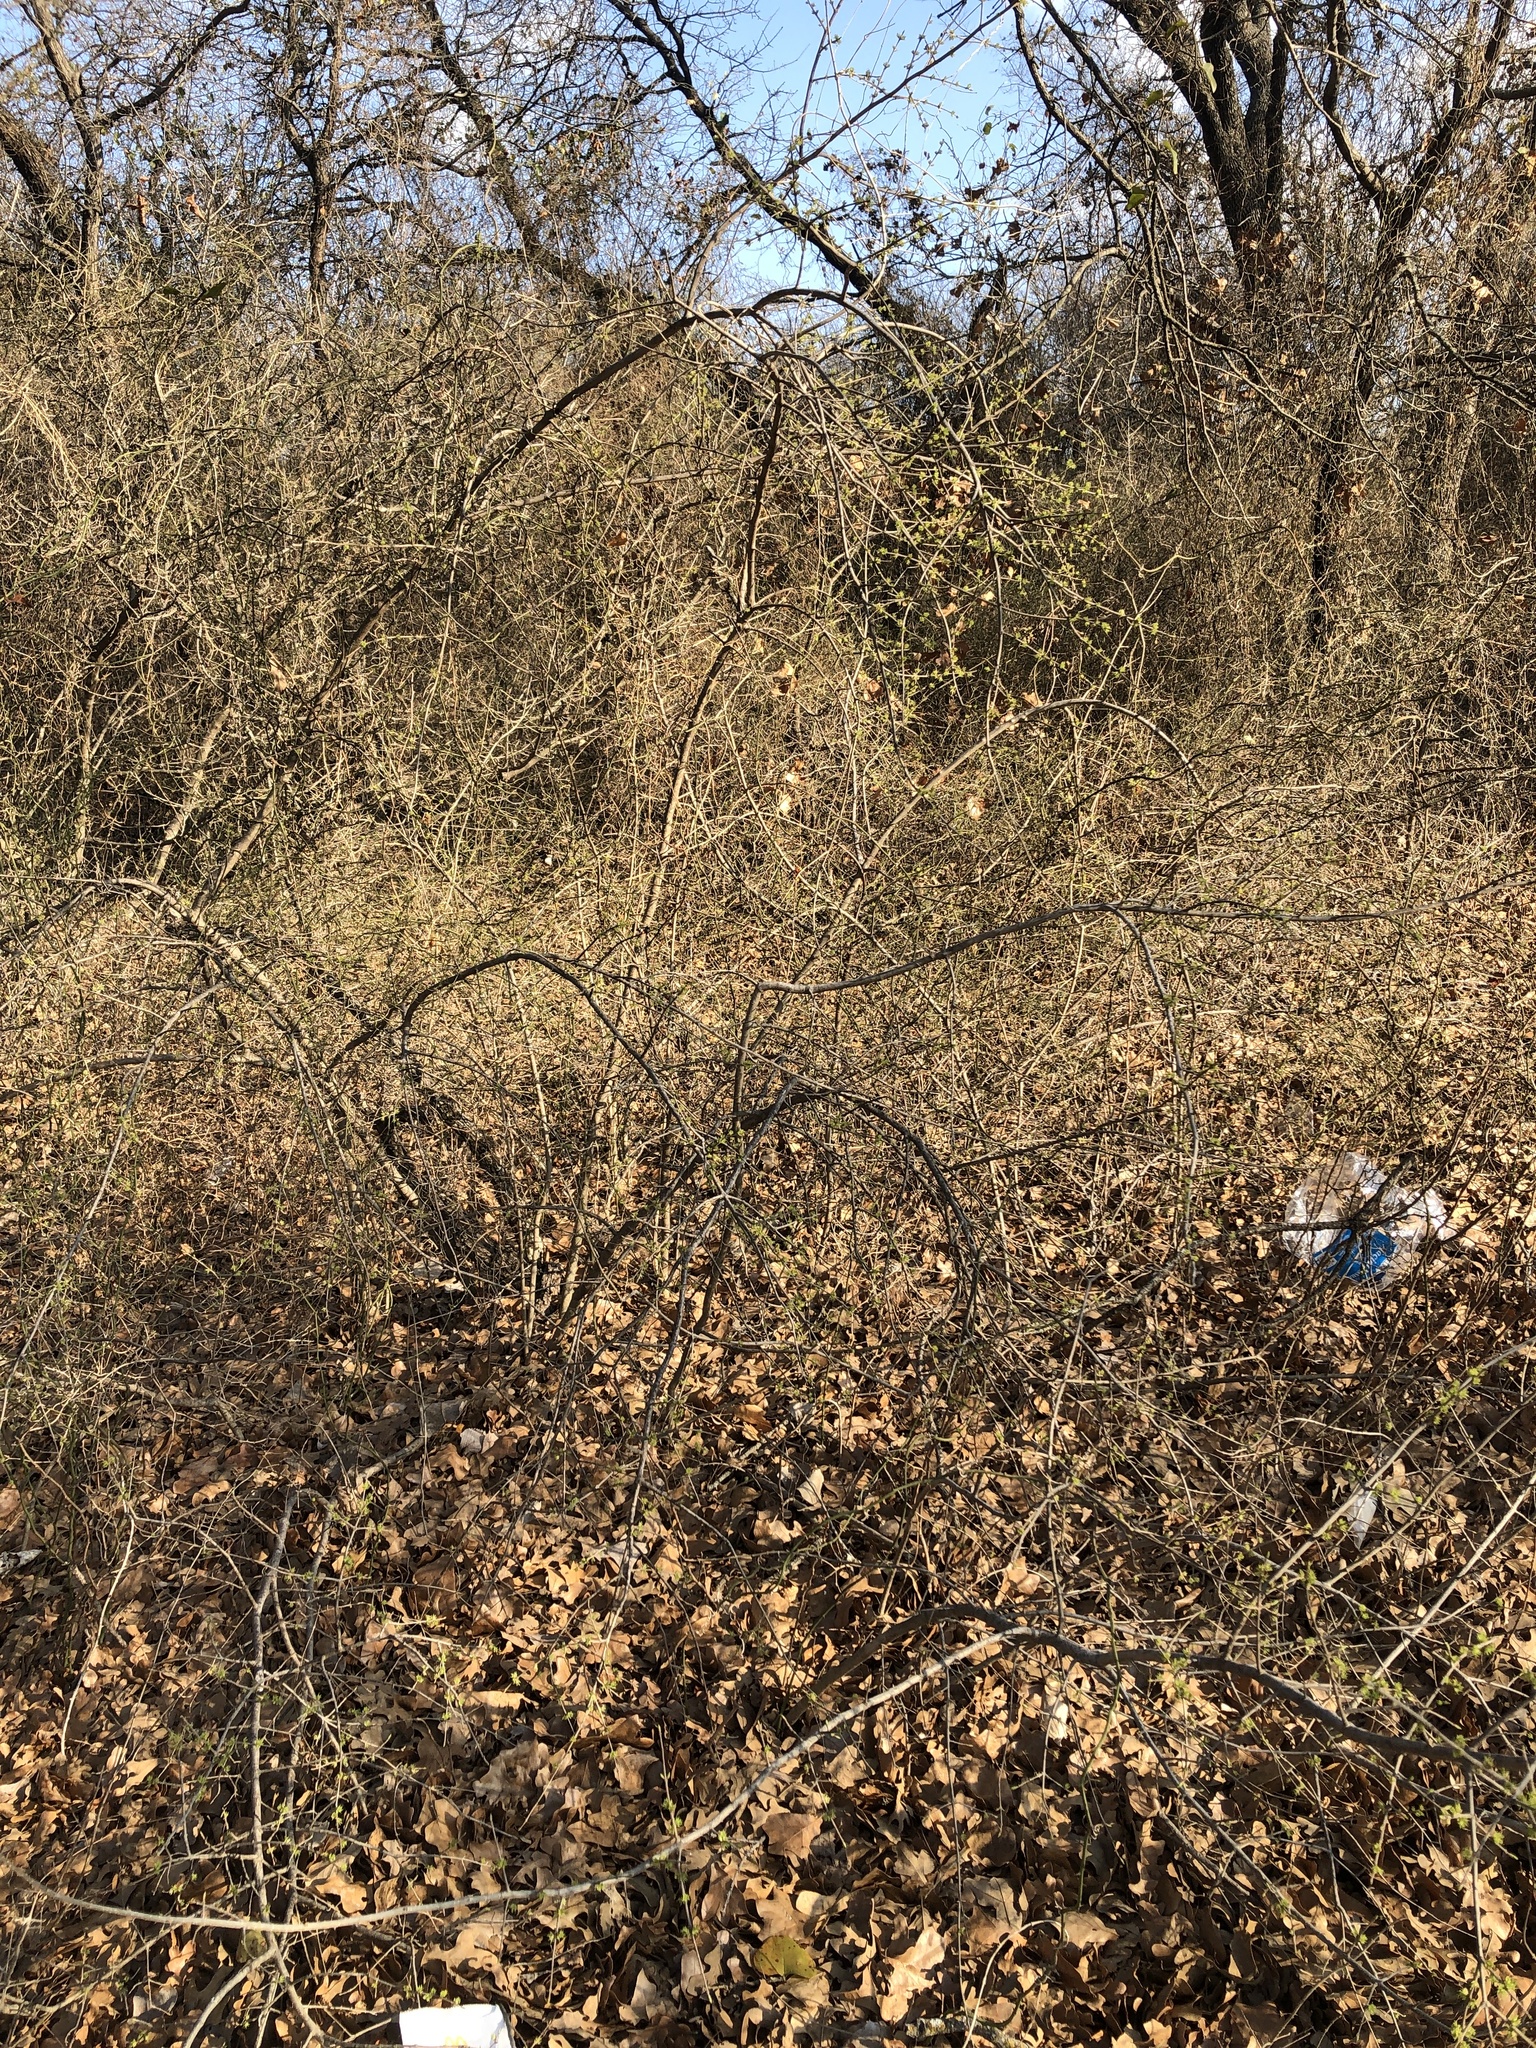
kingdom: Plantae
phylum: Tracheophyta
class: Magnoliopsida
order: Lamiales
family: Oleaceae
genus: Forestiera
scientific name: Forestiera pubescens
